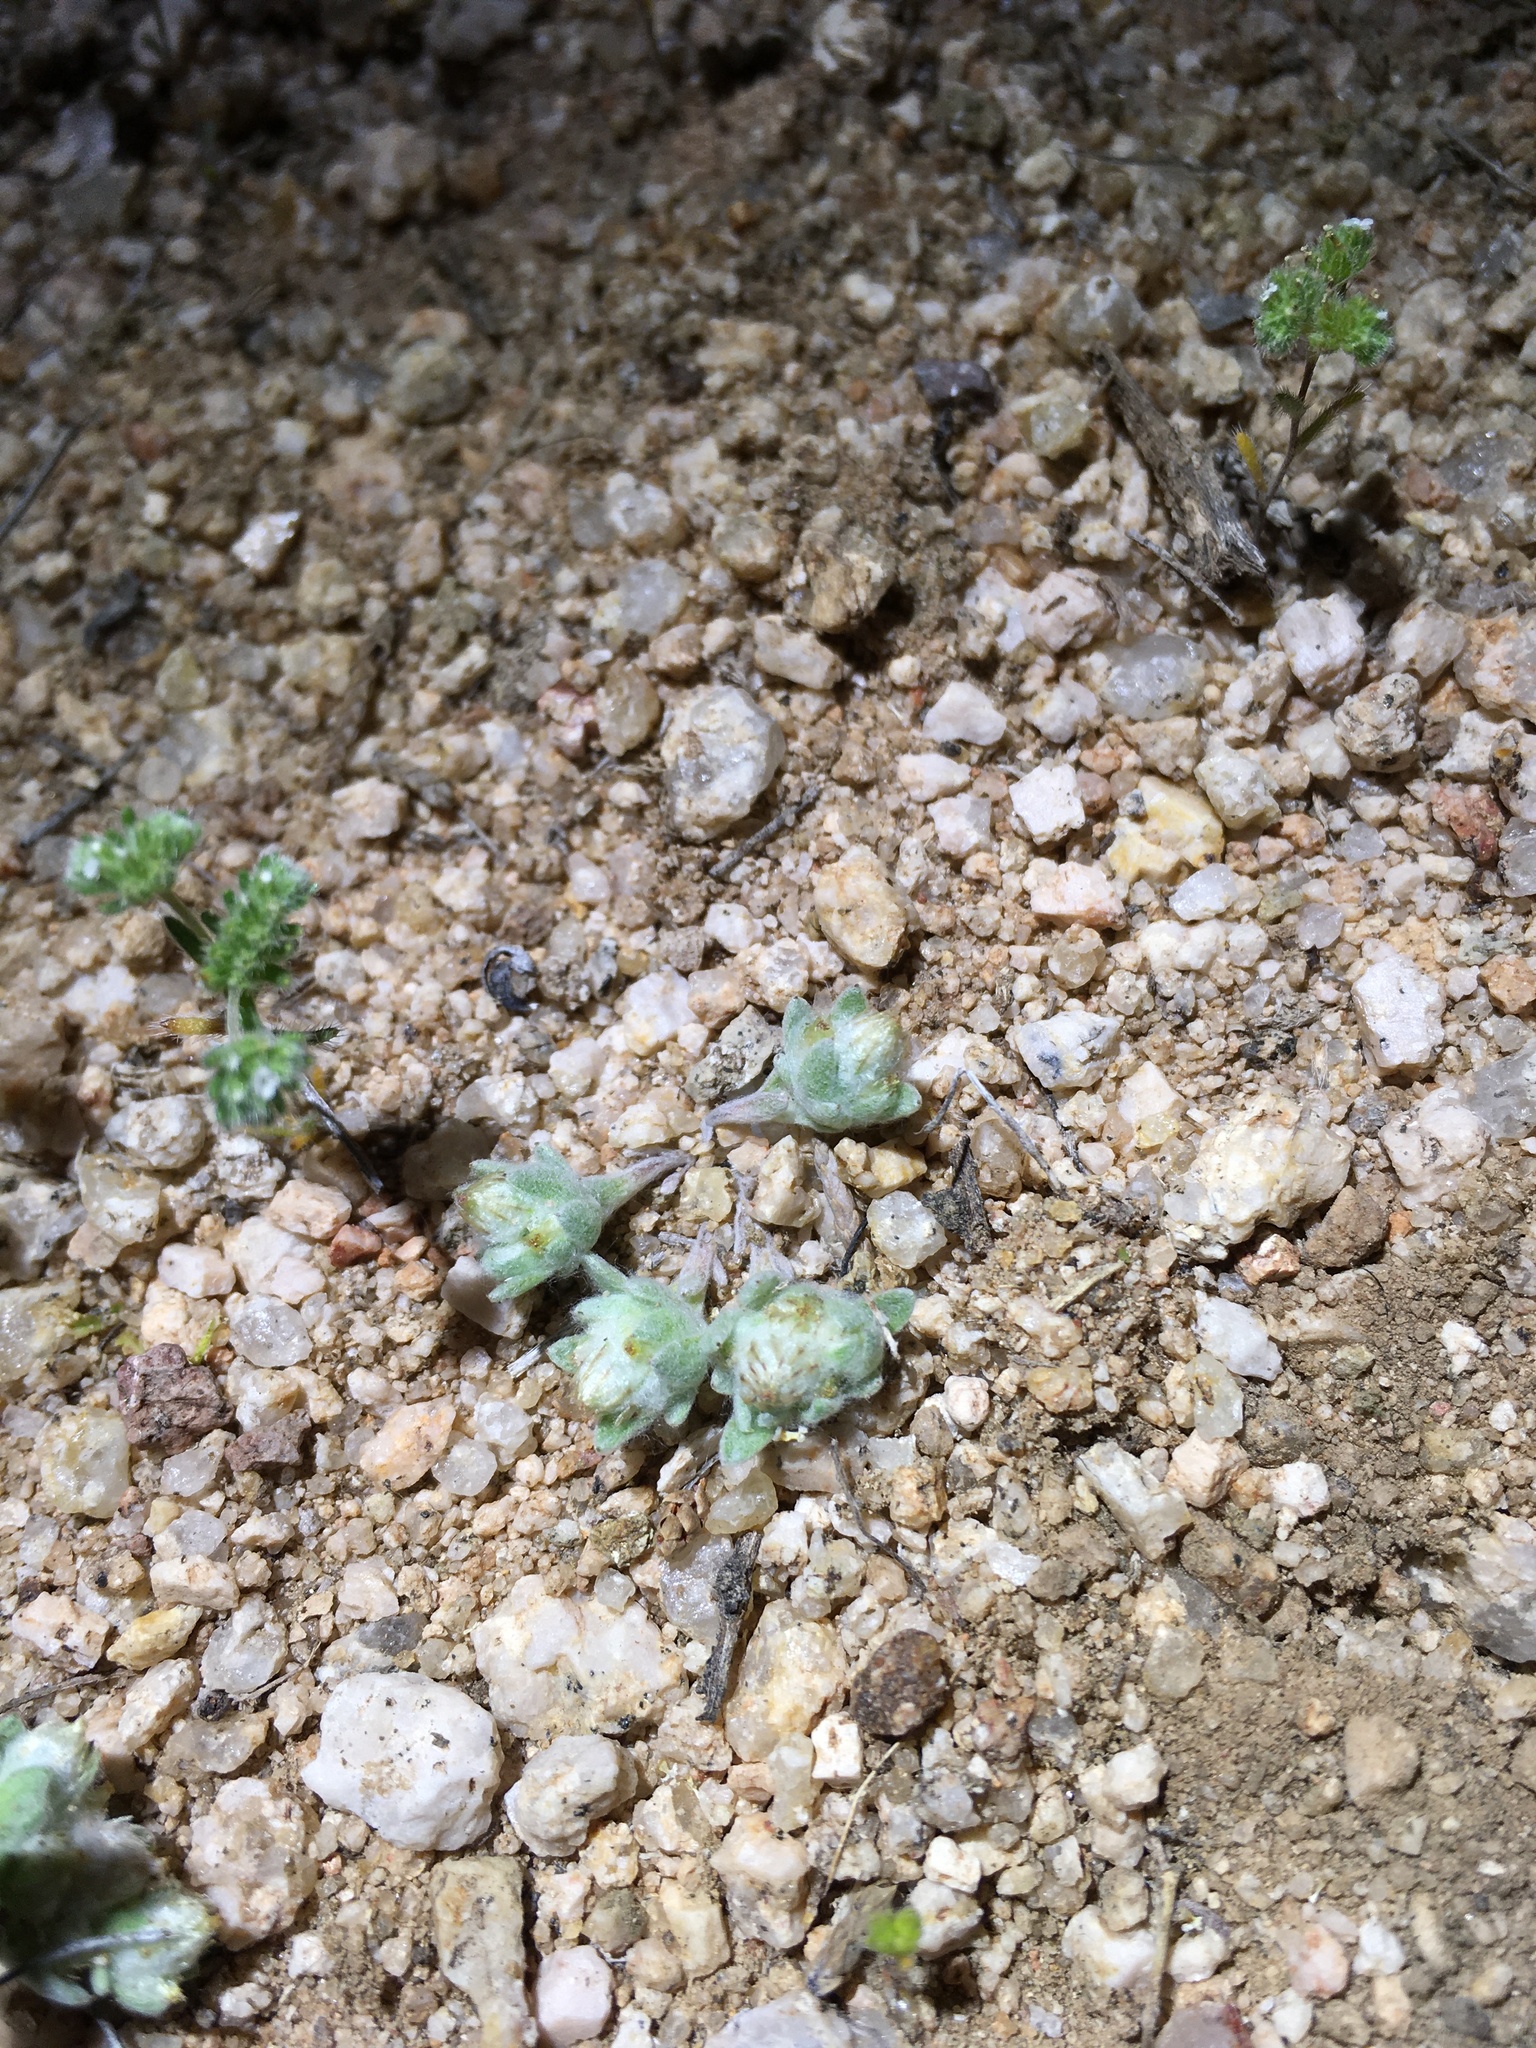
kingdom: Plantae
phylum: Tracheophyta
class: Magnoliopsida
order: Asterales
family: Asteraceae
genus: Stylocline
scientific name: Stylocline sonorensis
